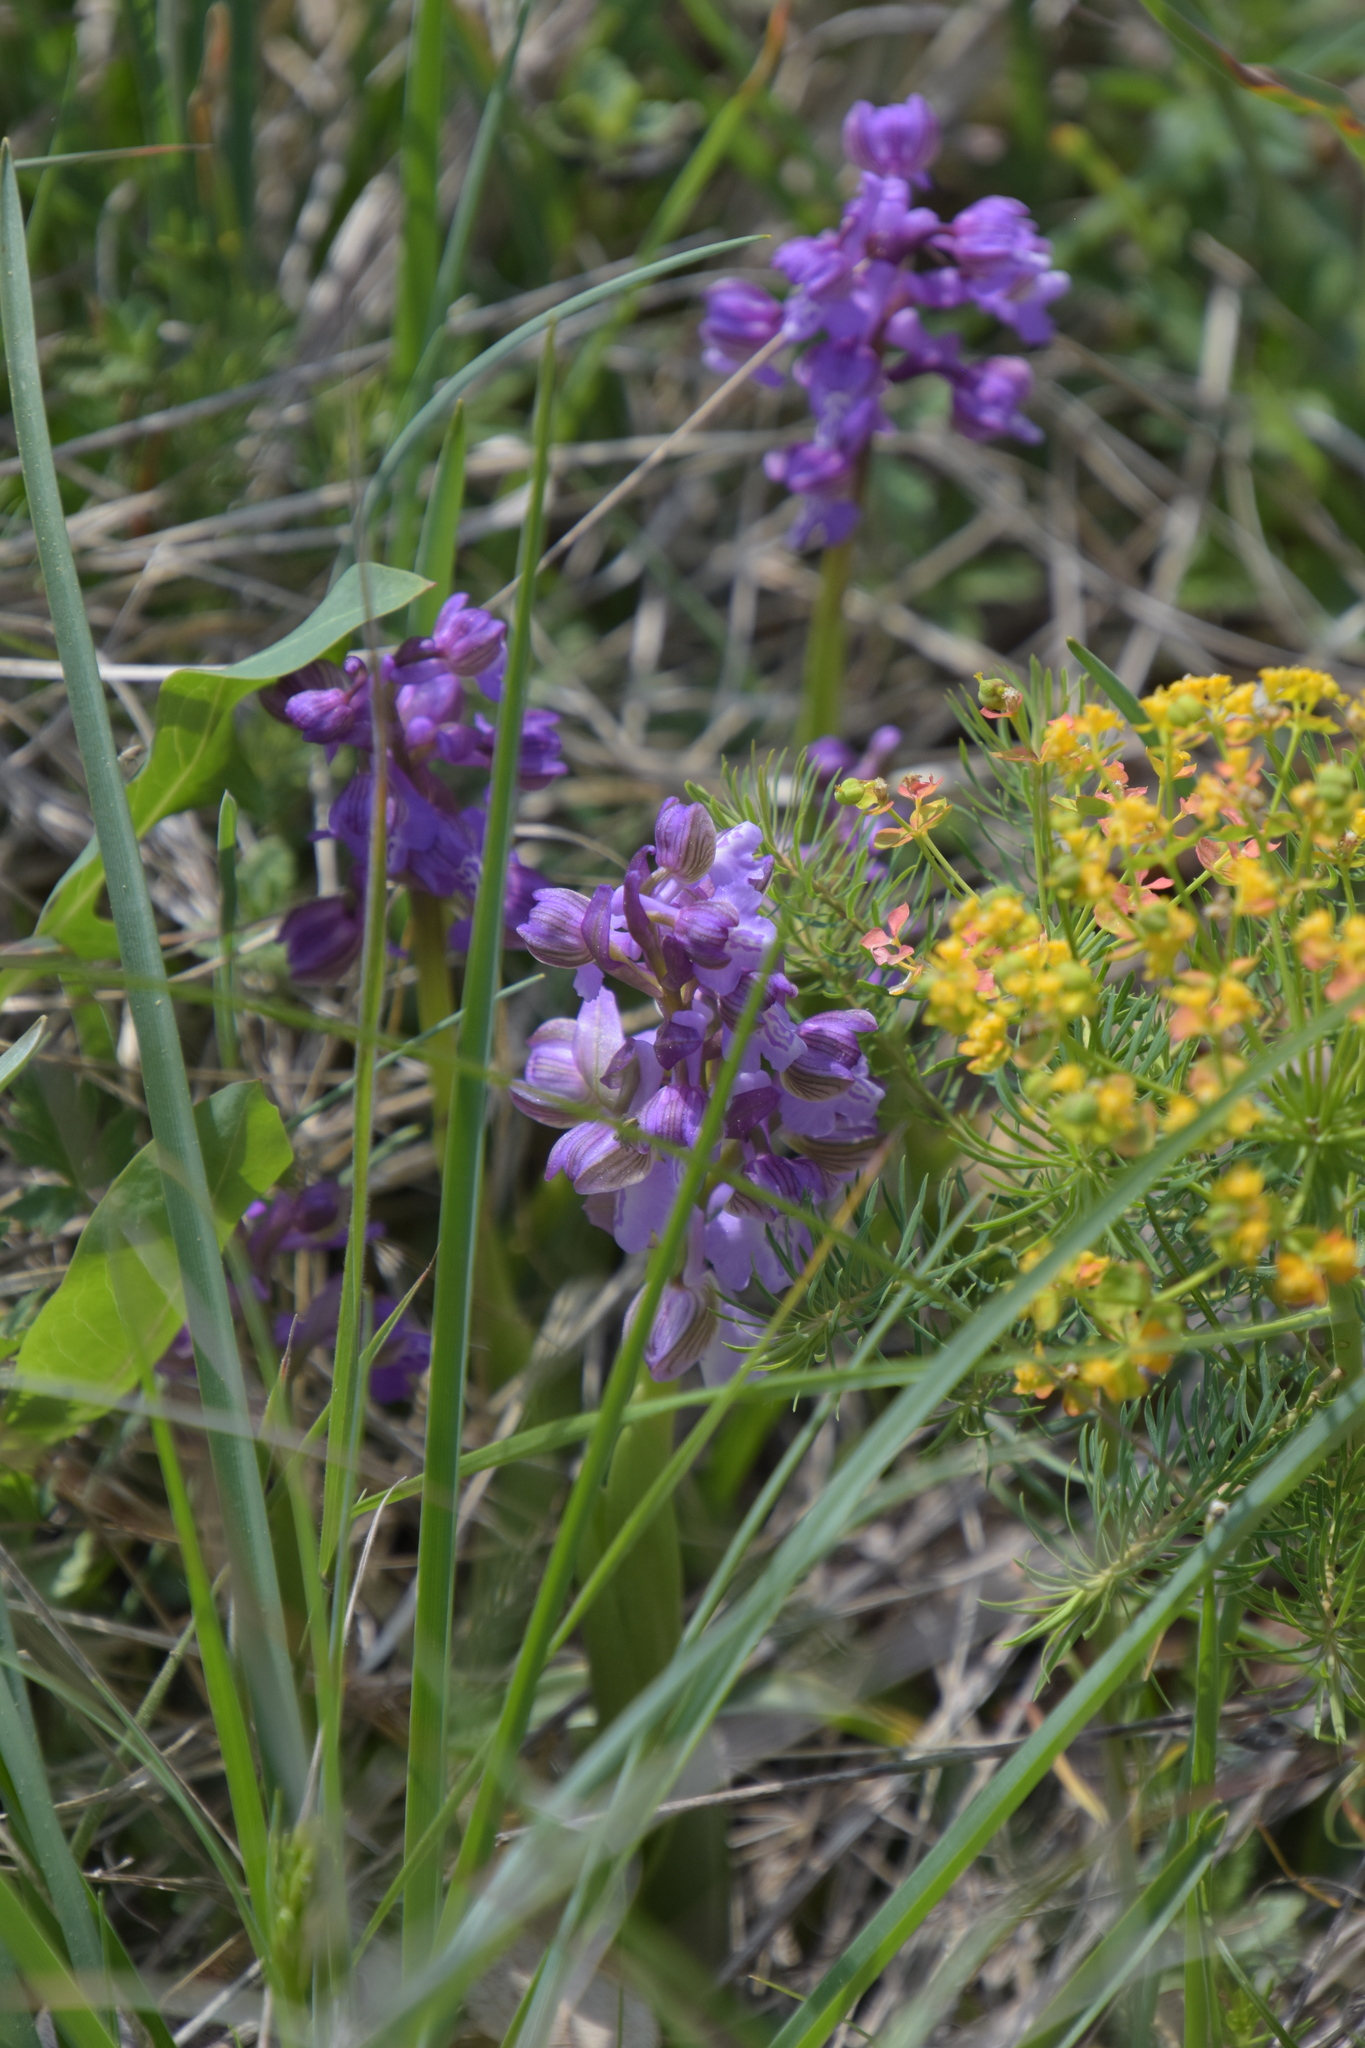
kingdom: Plantae
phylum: Tracheophyta
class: Liliopsida
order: Asparagales
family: Orchidaceae
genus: Anacamptis
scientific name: Anacamptis morio
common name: Green-winged orchid
